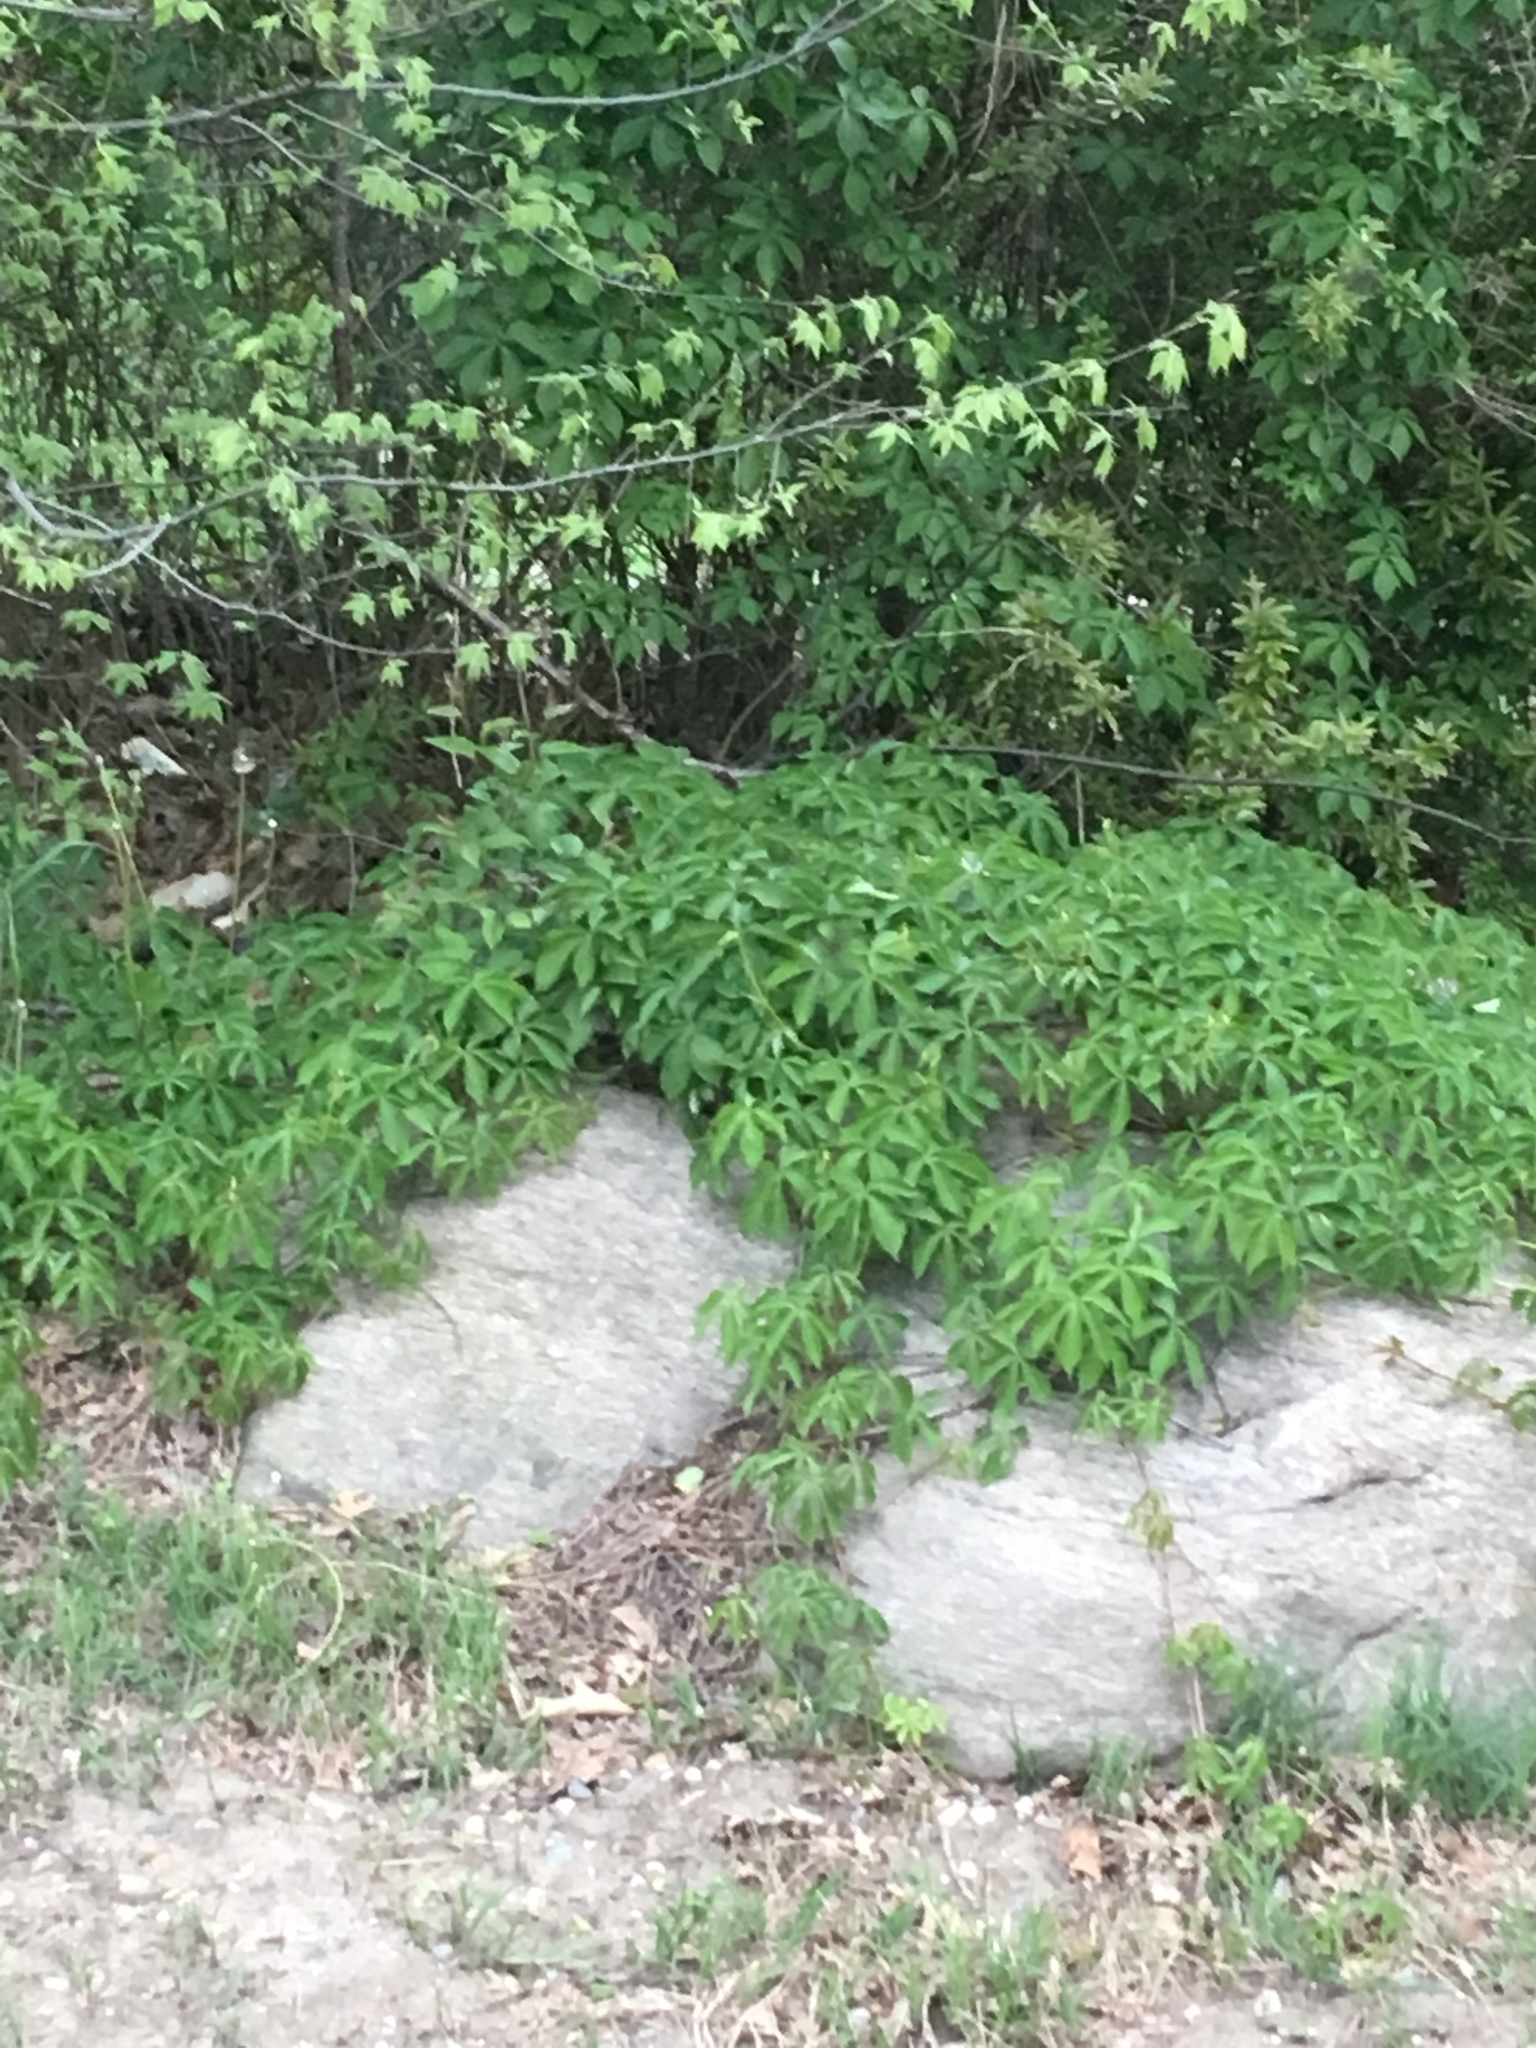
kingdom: Plantae
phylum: Tracheophyta
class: Magnoliopsida
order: Vitales
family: Vitaceae
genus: Parthenocissus
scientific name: Parthenocissus quinquefolia
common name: Virginia-creeper
